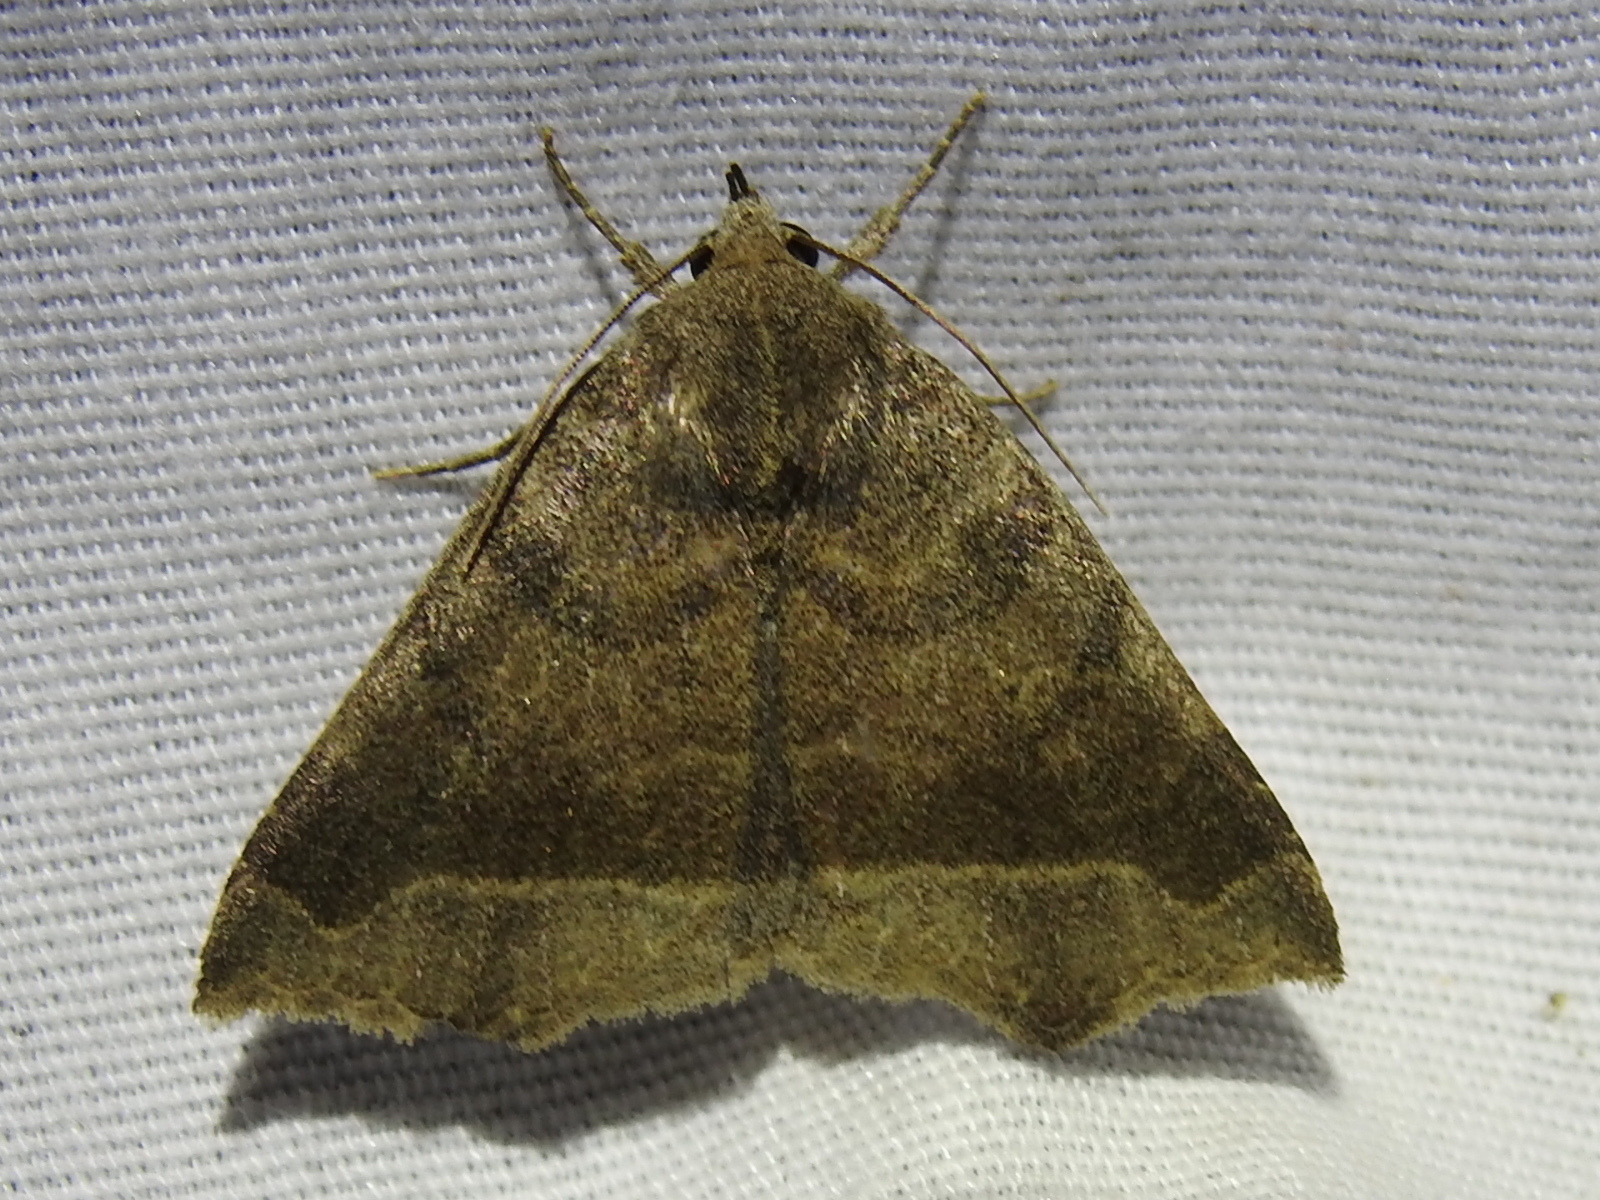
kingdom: Animalia
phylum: Arthropoda
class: Insecta
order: Lepidoptera
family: Erebidae
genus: Bendisodes
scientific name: Bendisodes aeolia
